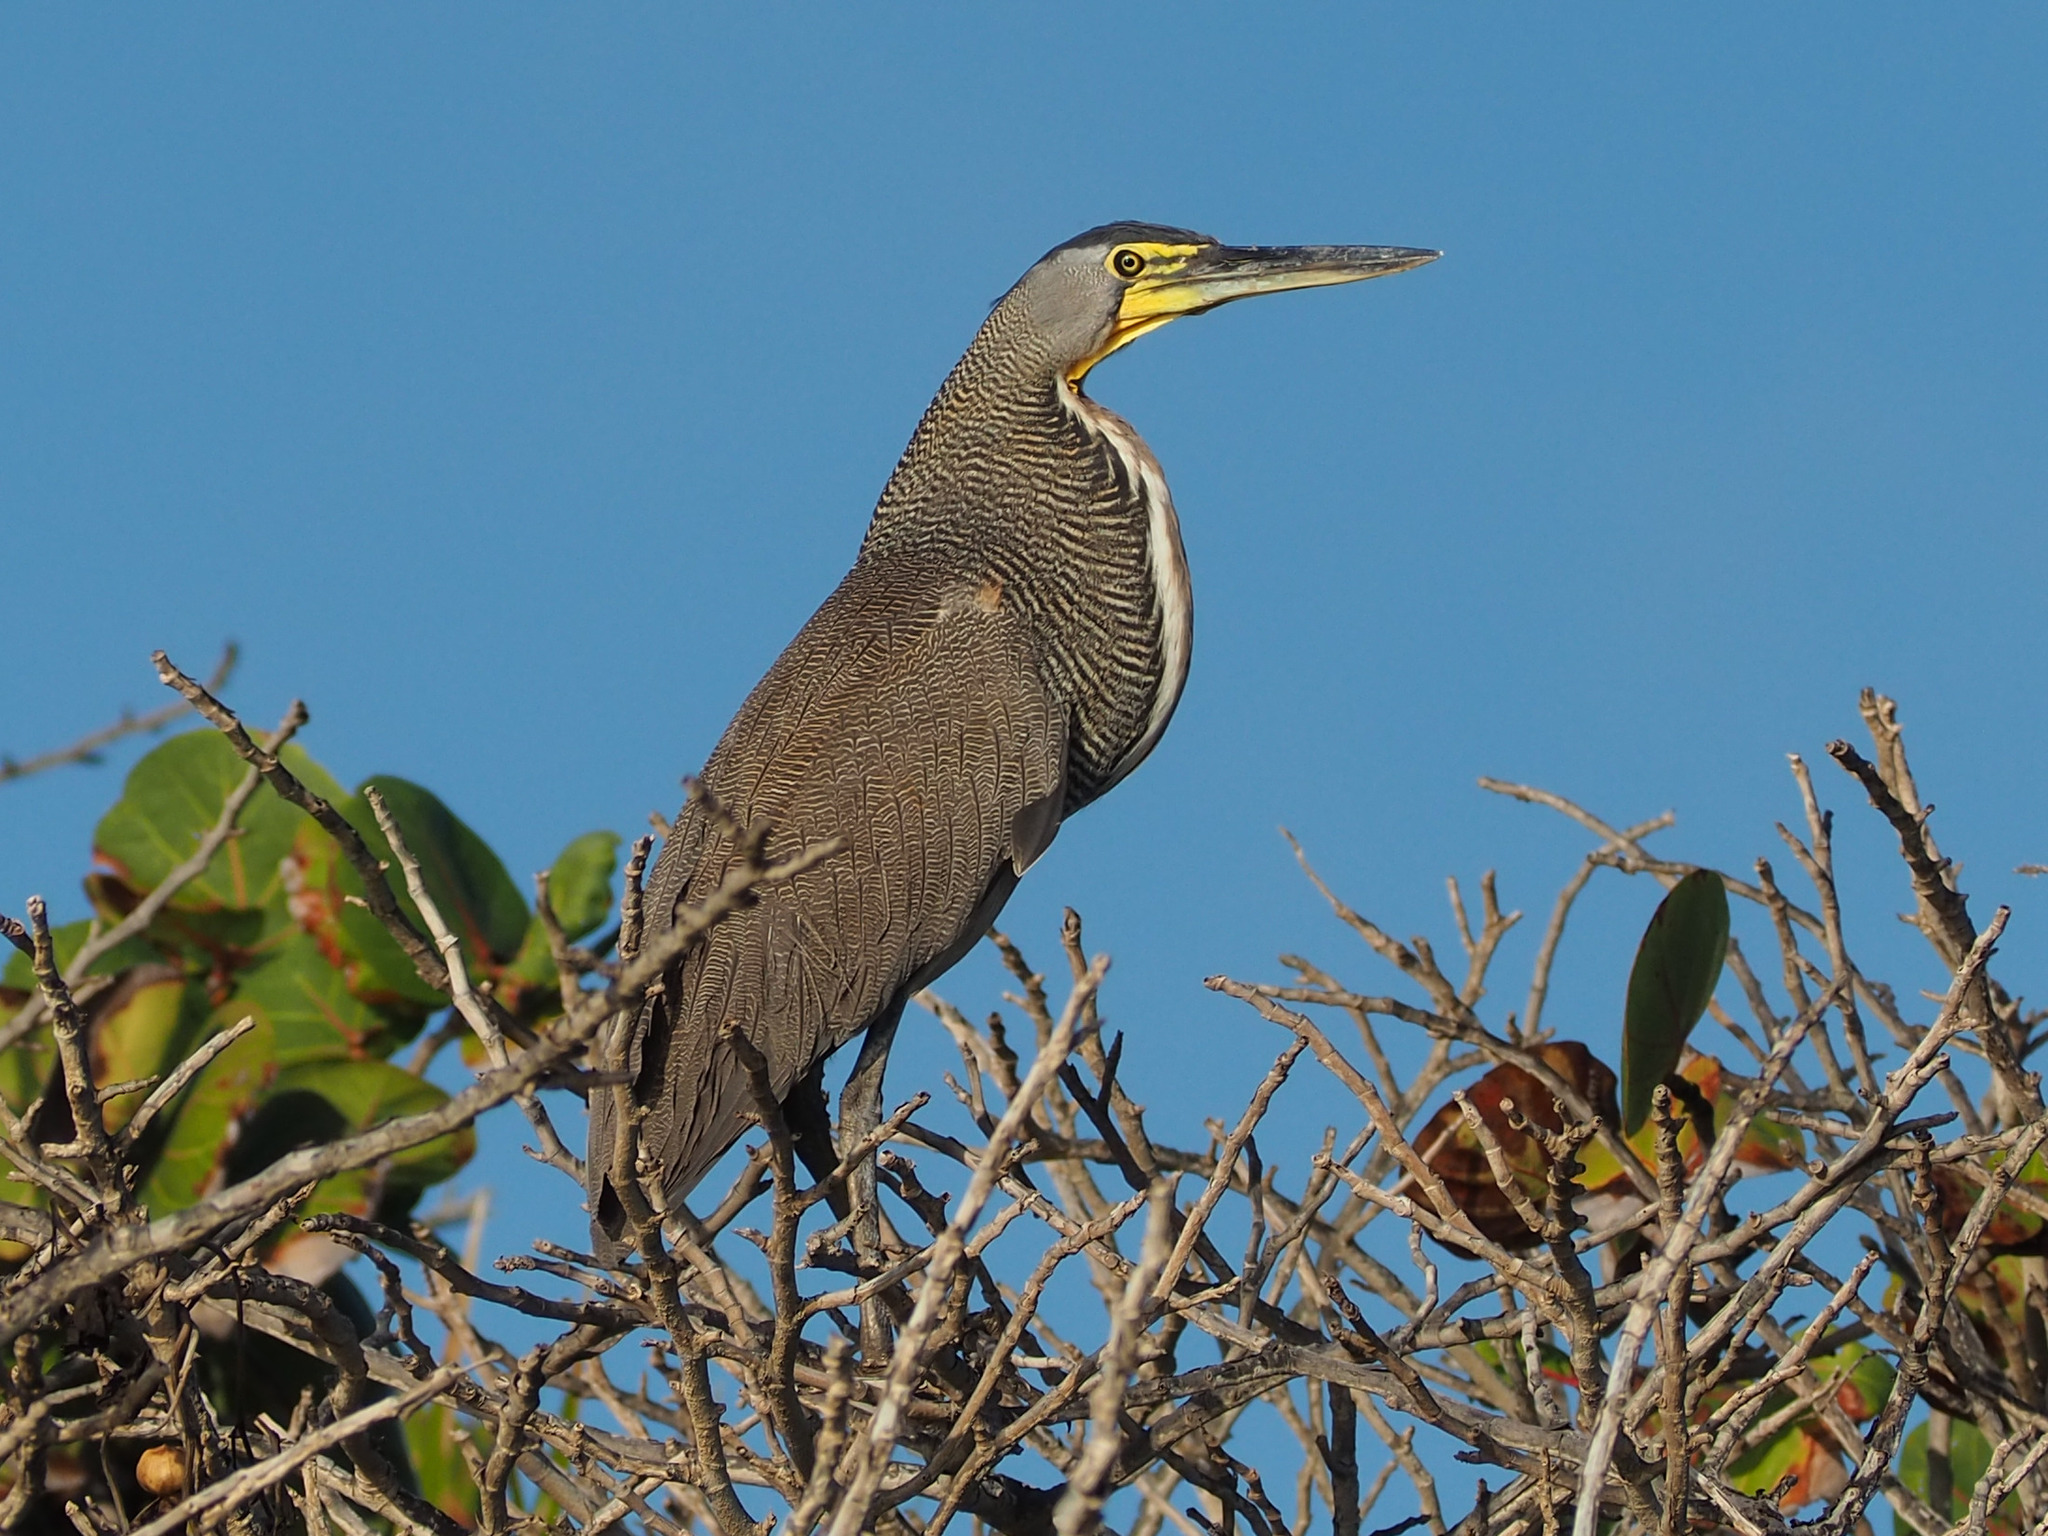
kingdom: Animalia
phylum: Chordata
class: Aves
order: Pelecaniformes
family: Ardeidae
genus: Tigrisoma
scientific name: Tigrisoma mexicanum
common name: Bare-throated tiger-heron
